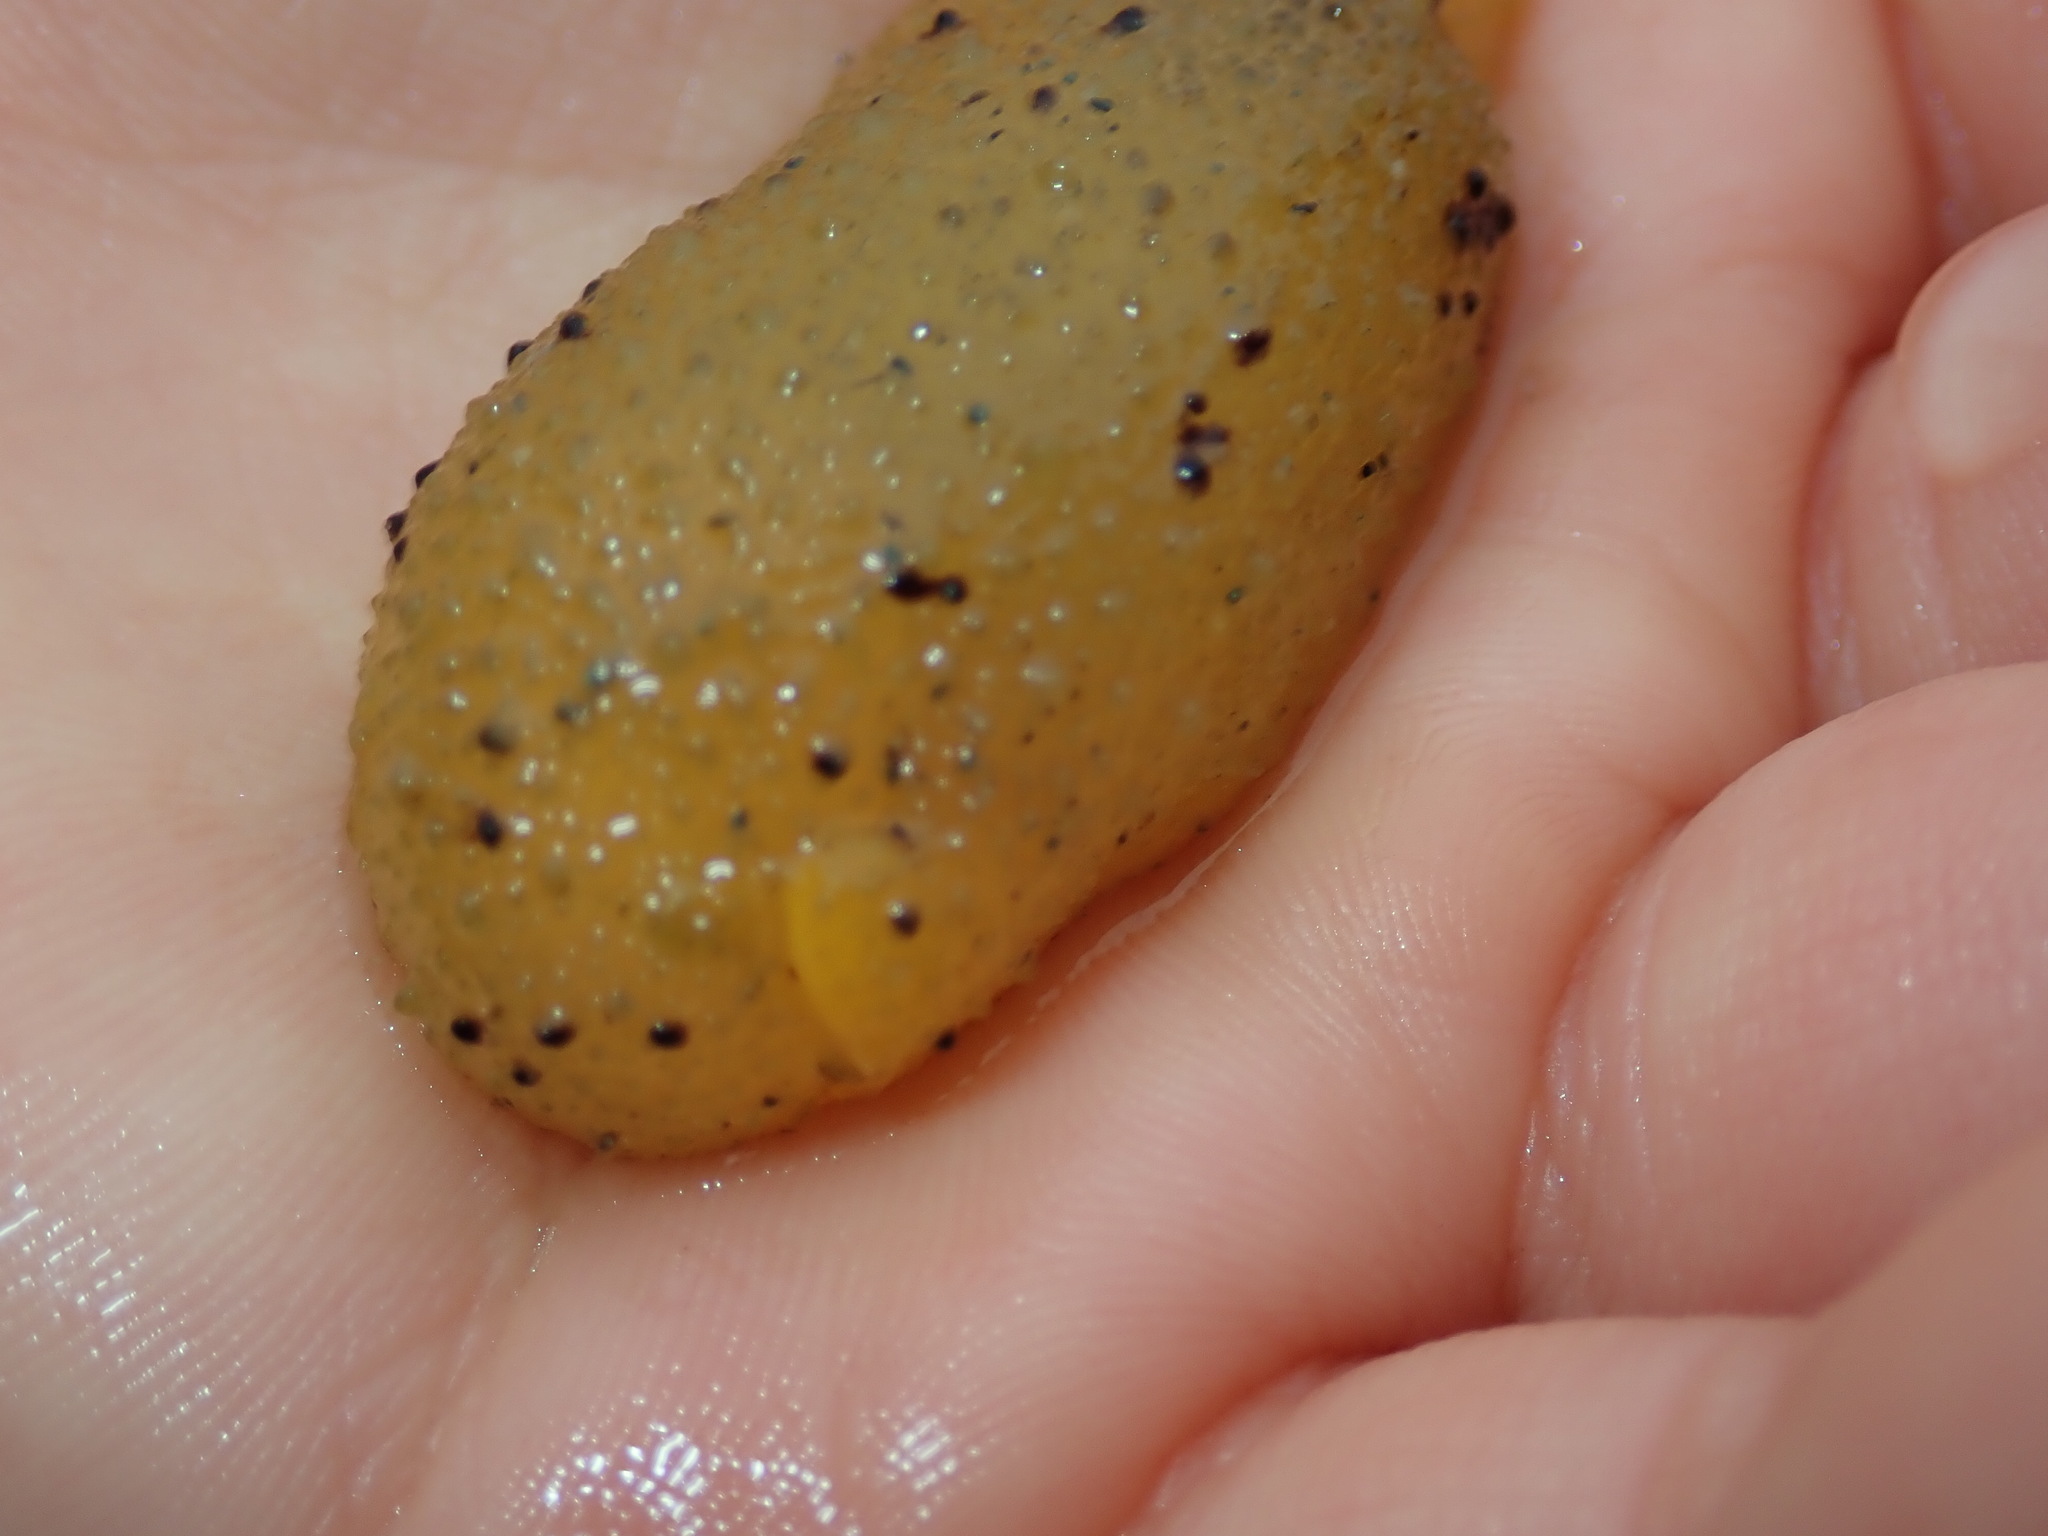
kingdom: Animalia
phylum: Mollusca
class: Gastropoda
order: Nudibranchia
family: Dorididae
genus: Doris
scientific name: Doris montereyensis
